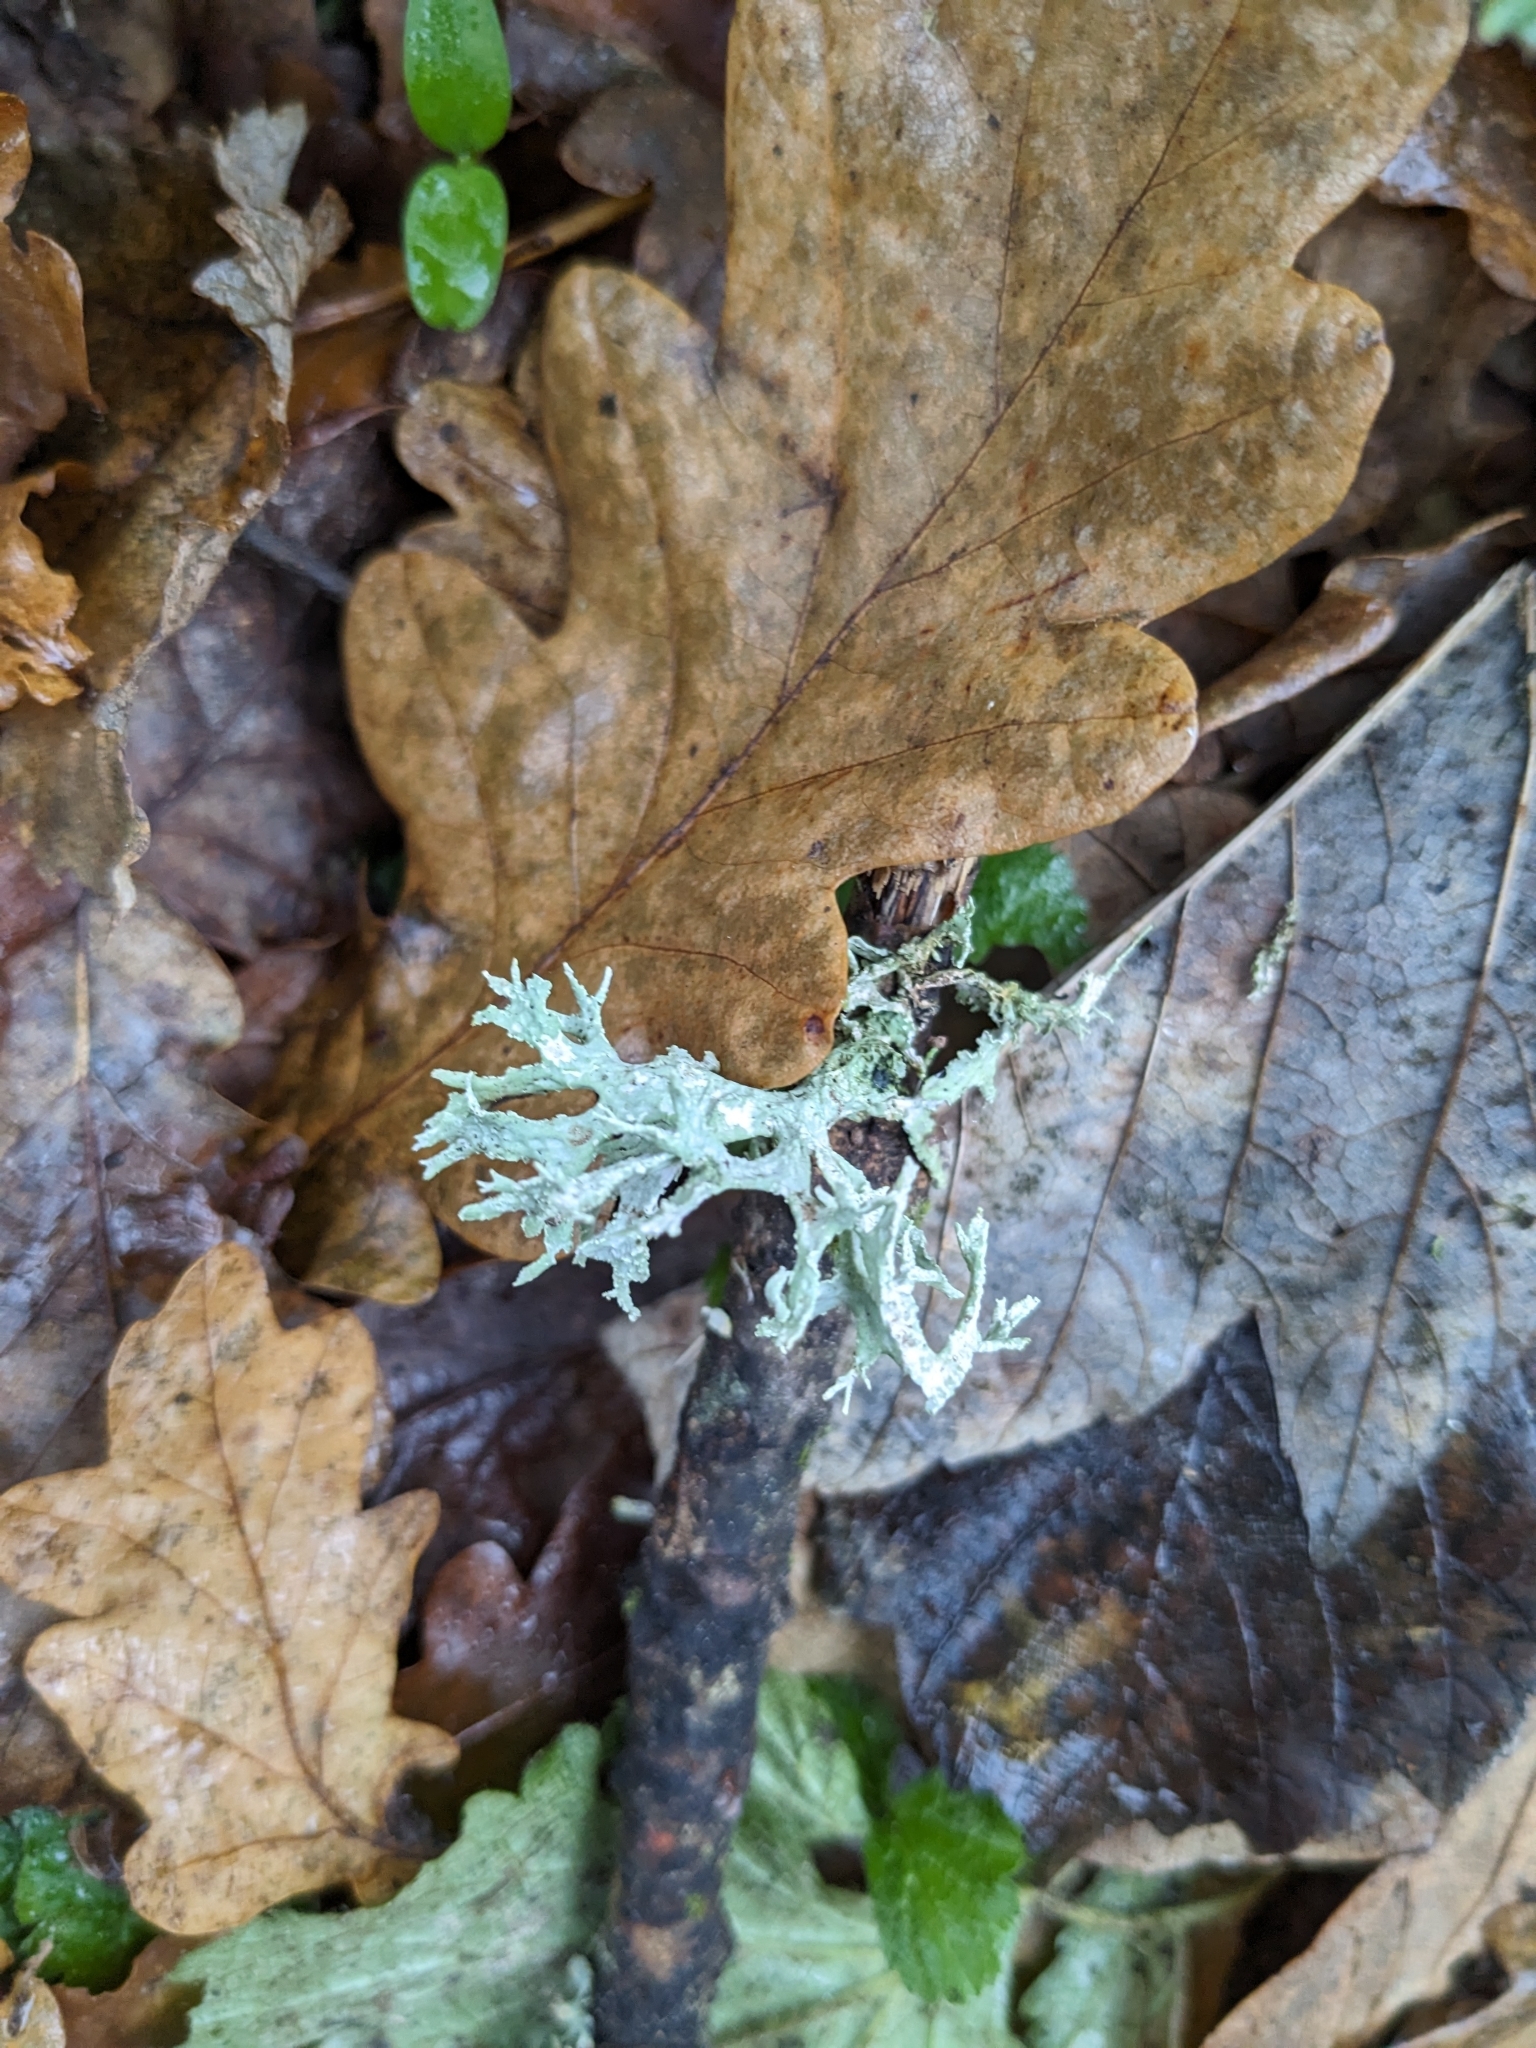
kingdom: Fungi
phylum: Ascomycota
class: Lecanoromycetes
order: Lecanorales
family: Parmeliaceae
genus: Evernia
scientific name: Evernia prunastri
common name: Oak moss
